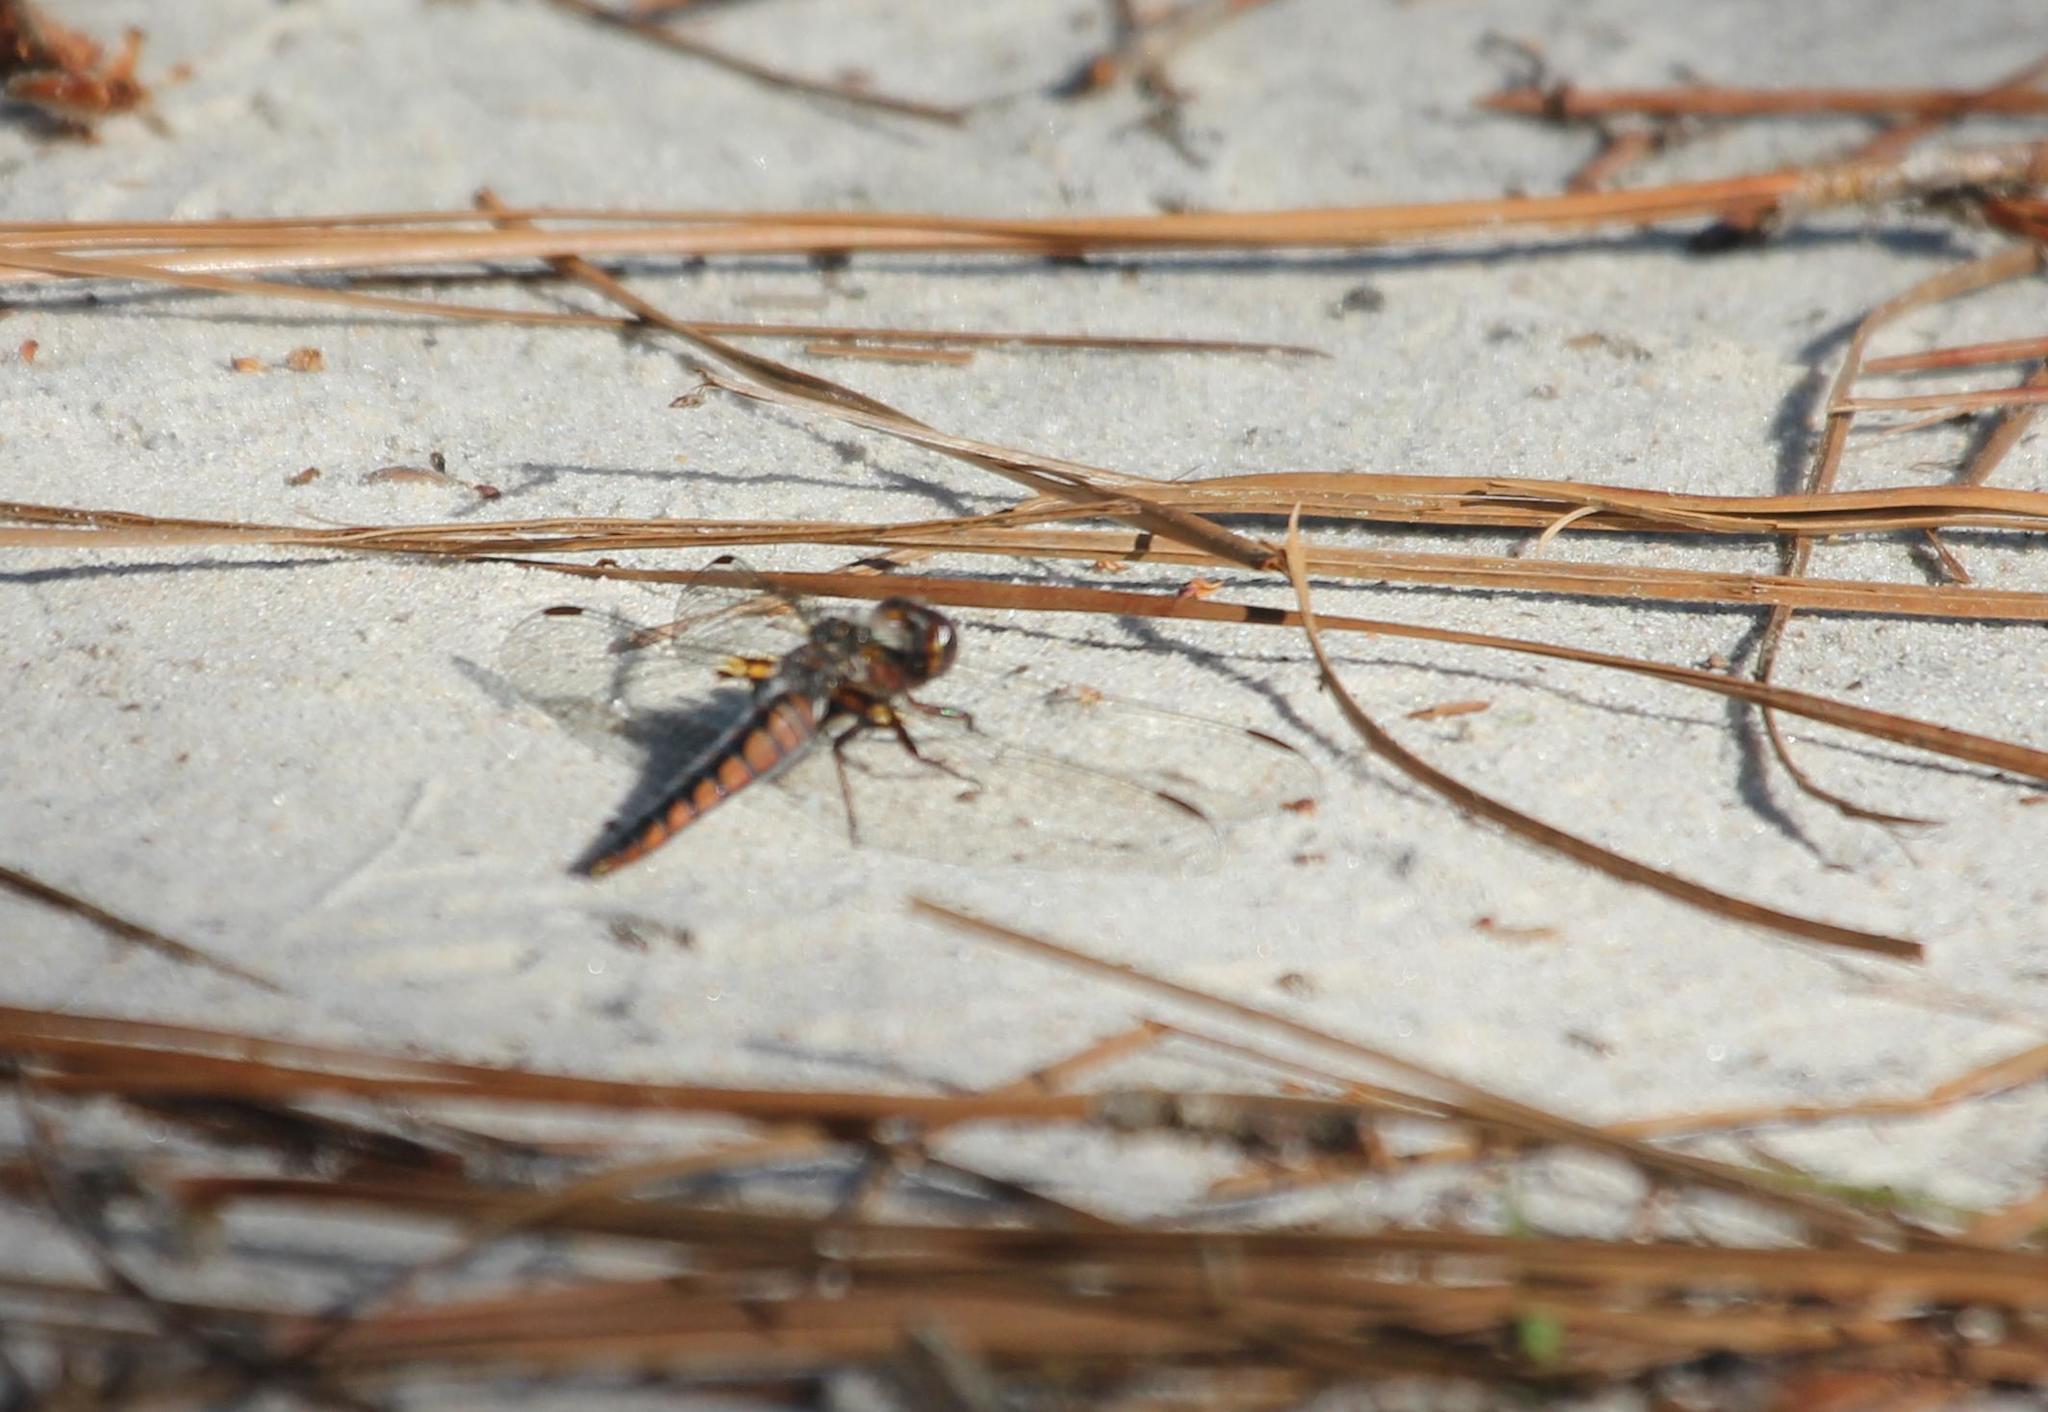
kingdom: Animalia
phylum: Arthropoda
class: Insecta
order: Odonata
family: Libellulidae
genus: Ladona
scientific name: Ladona deplanata
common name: Blue corporal
